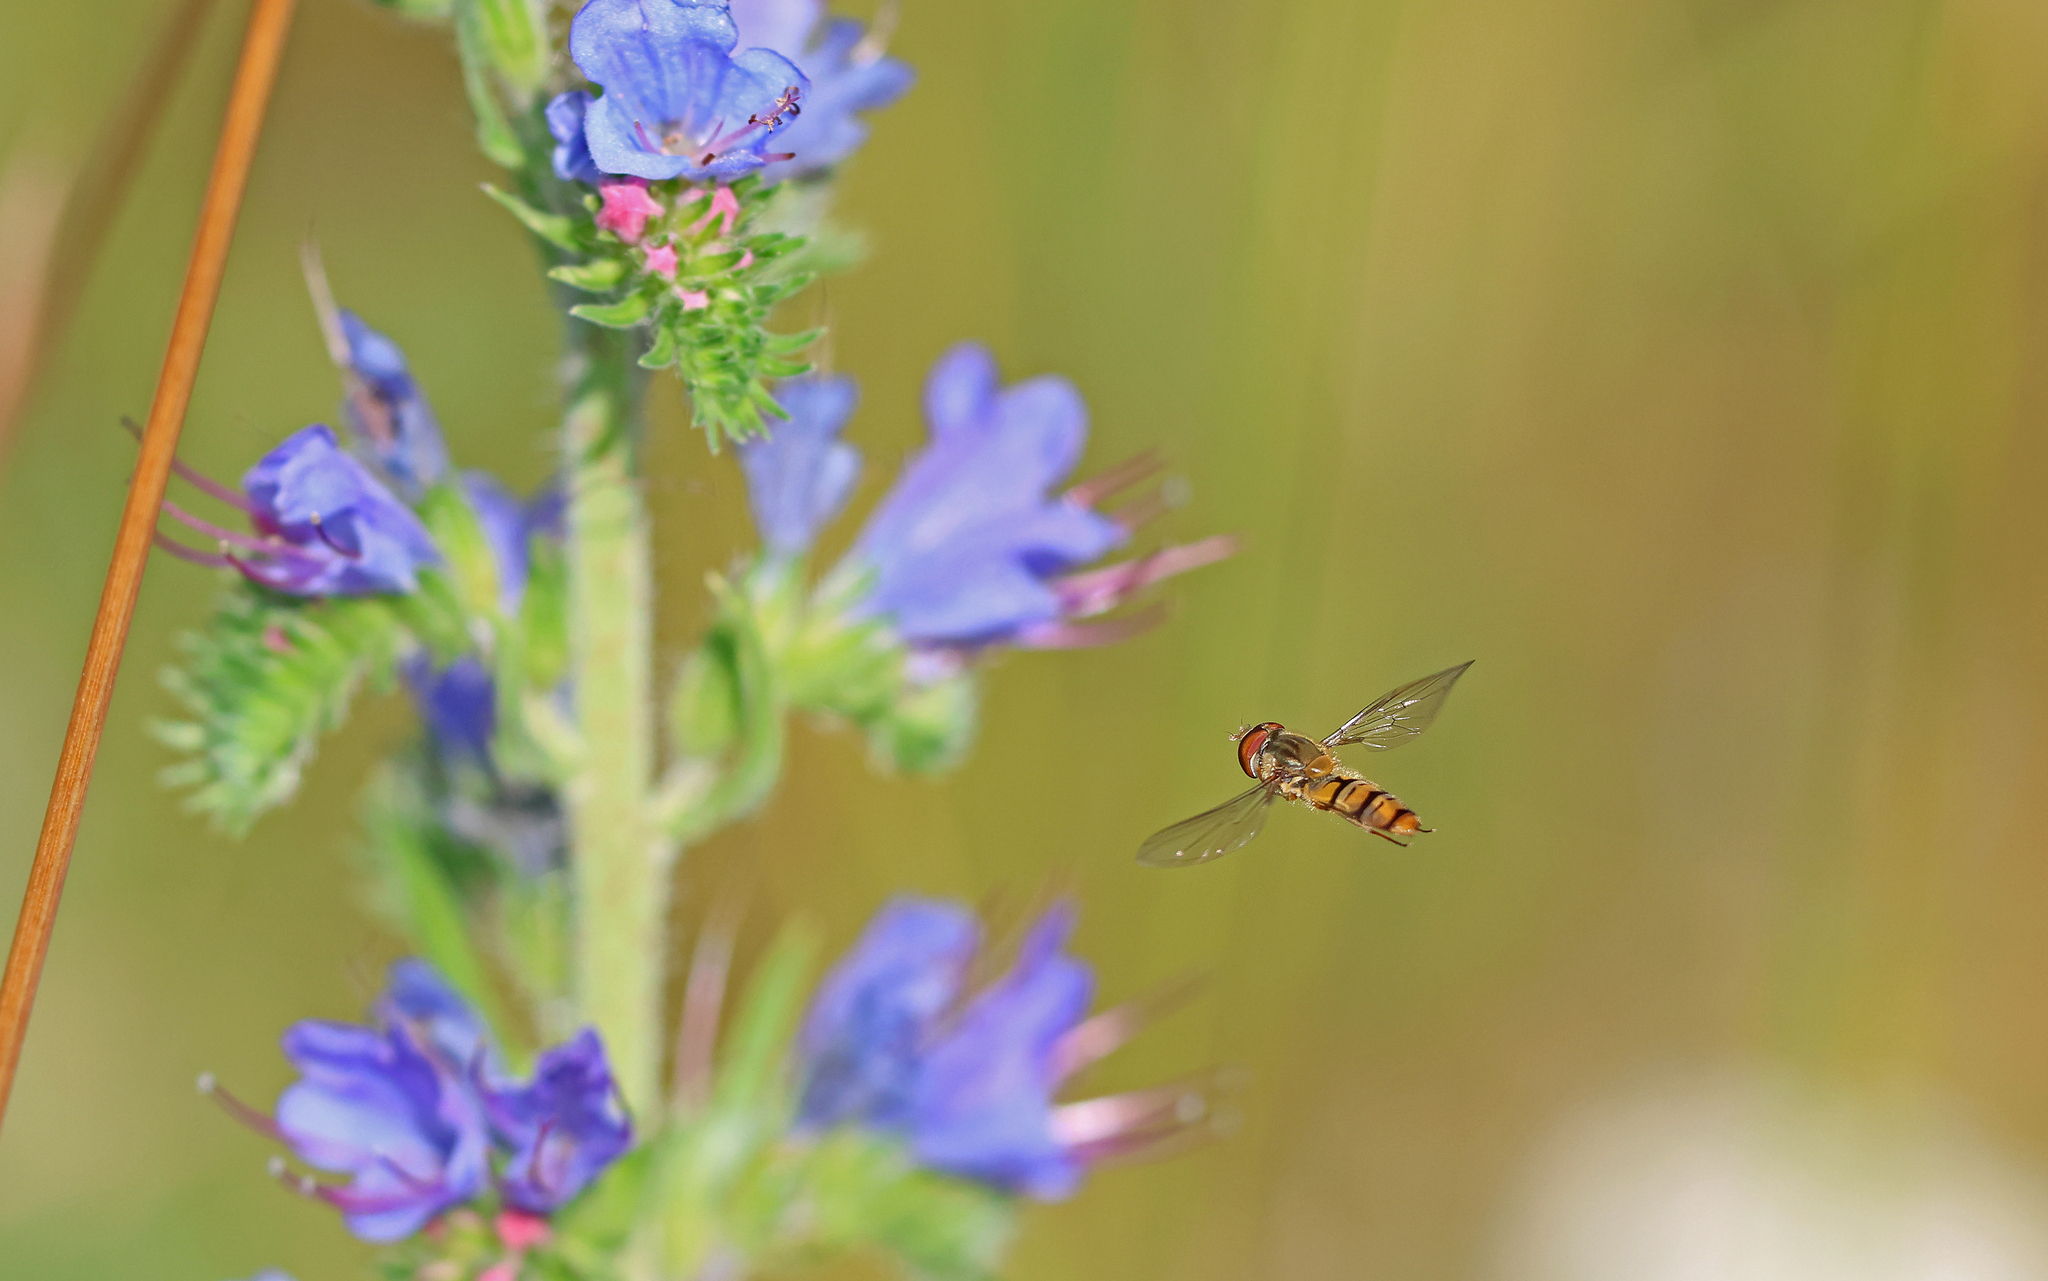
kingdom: Animalia
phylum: Arthropoda
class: Insecta
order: Diptera
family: Syrphidae
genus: Episyrphus
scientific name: Episyrphus balteatus
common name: Marmalade hoverfly
